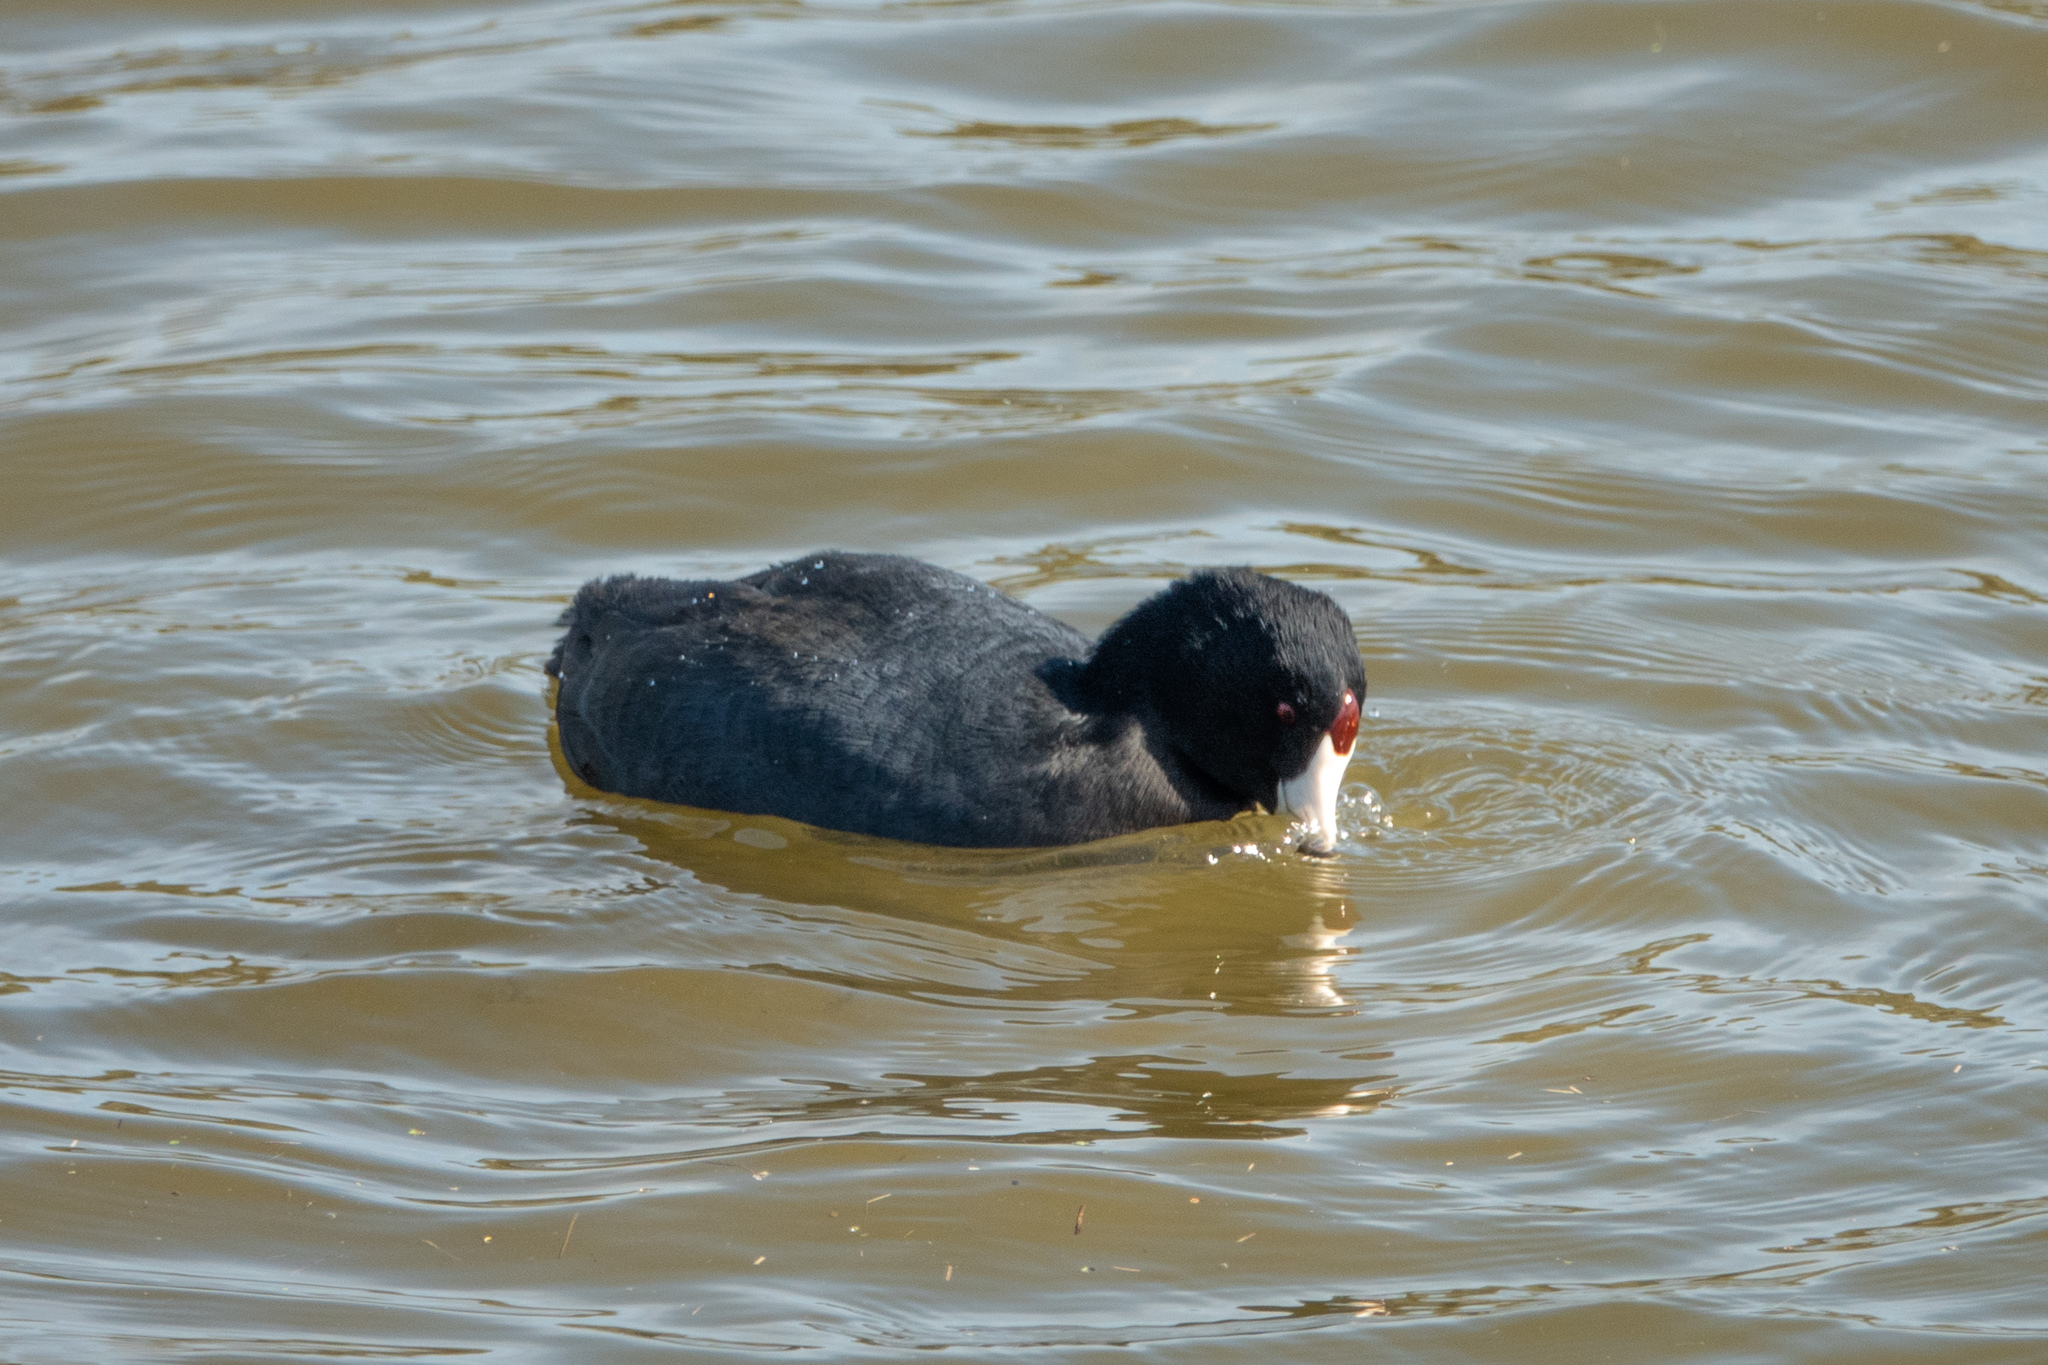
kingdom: Animalia
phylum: Chordata
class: Aves
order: Gruiformes
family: Rallidae
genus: Fulica
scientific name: Fulica americana
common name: American coot
